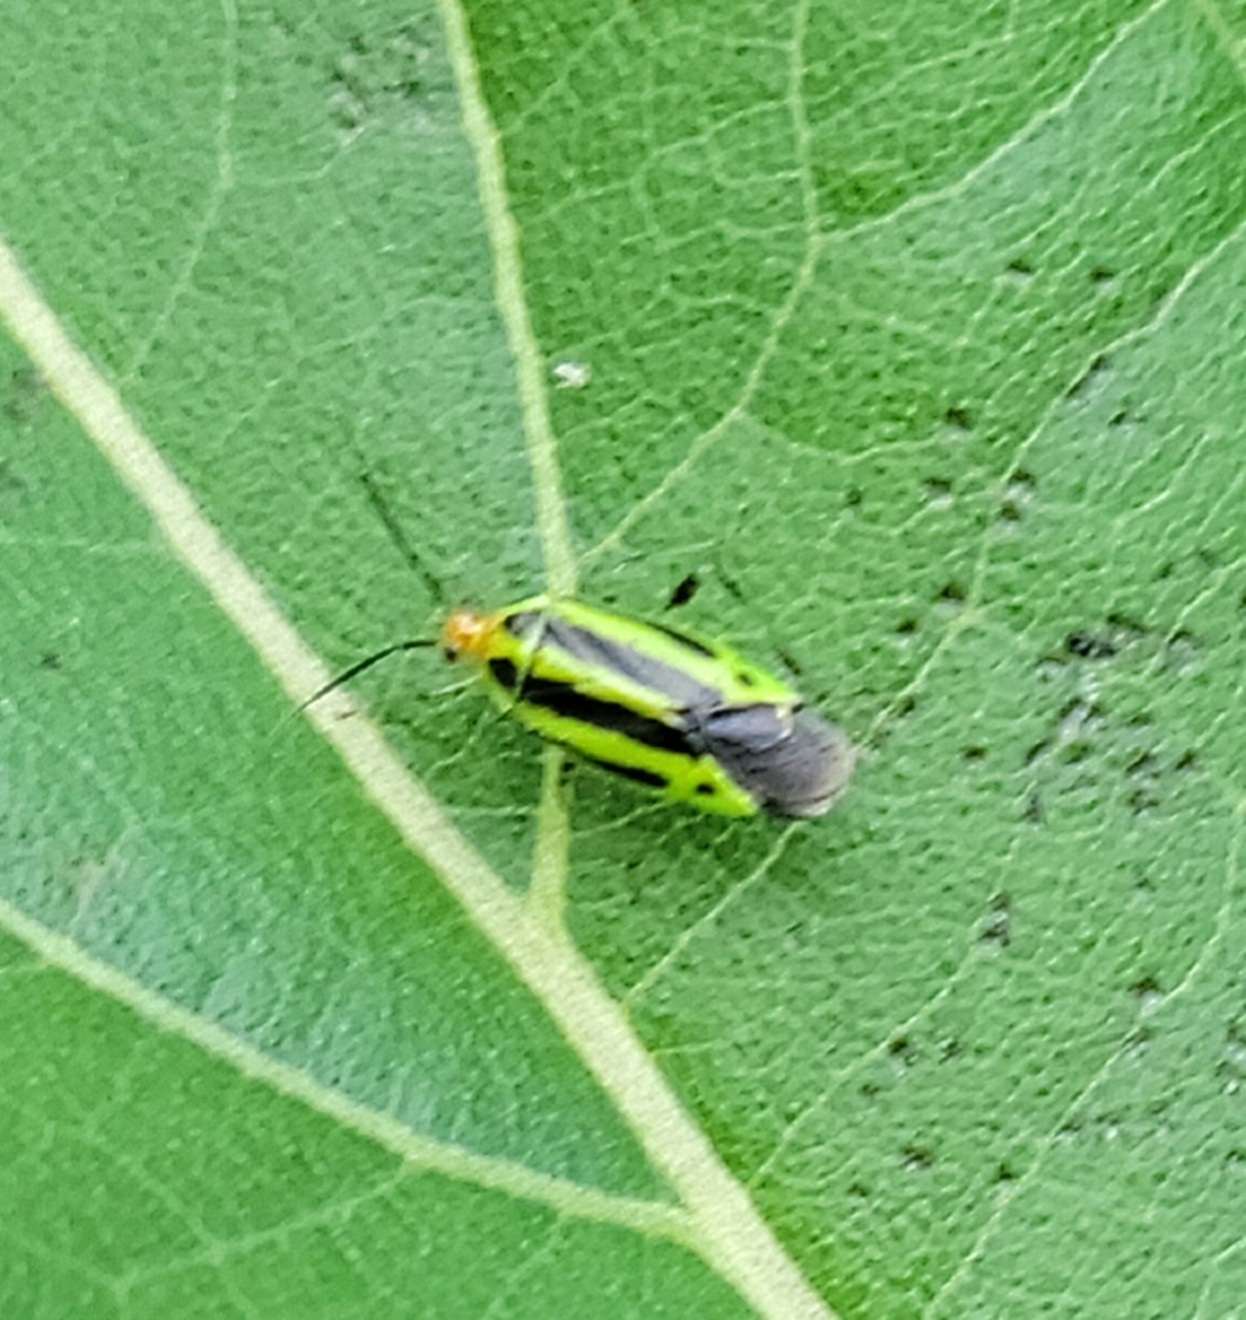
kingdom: Animalia
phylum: Arthropoda
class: Insecta
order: Hemiptera
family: Miridae
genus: Poecilocapsus
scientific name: Poecilocapsus lineatus
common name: Four-lined plant bug
